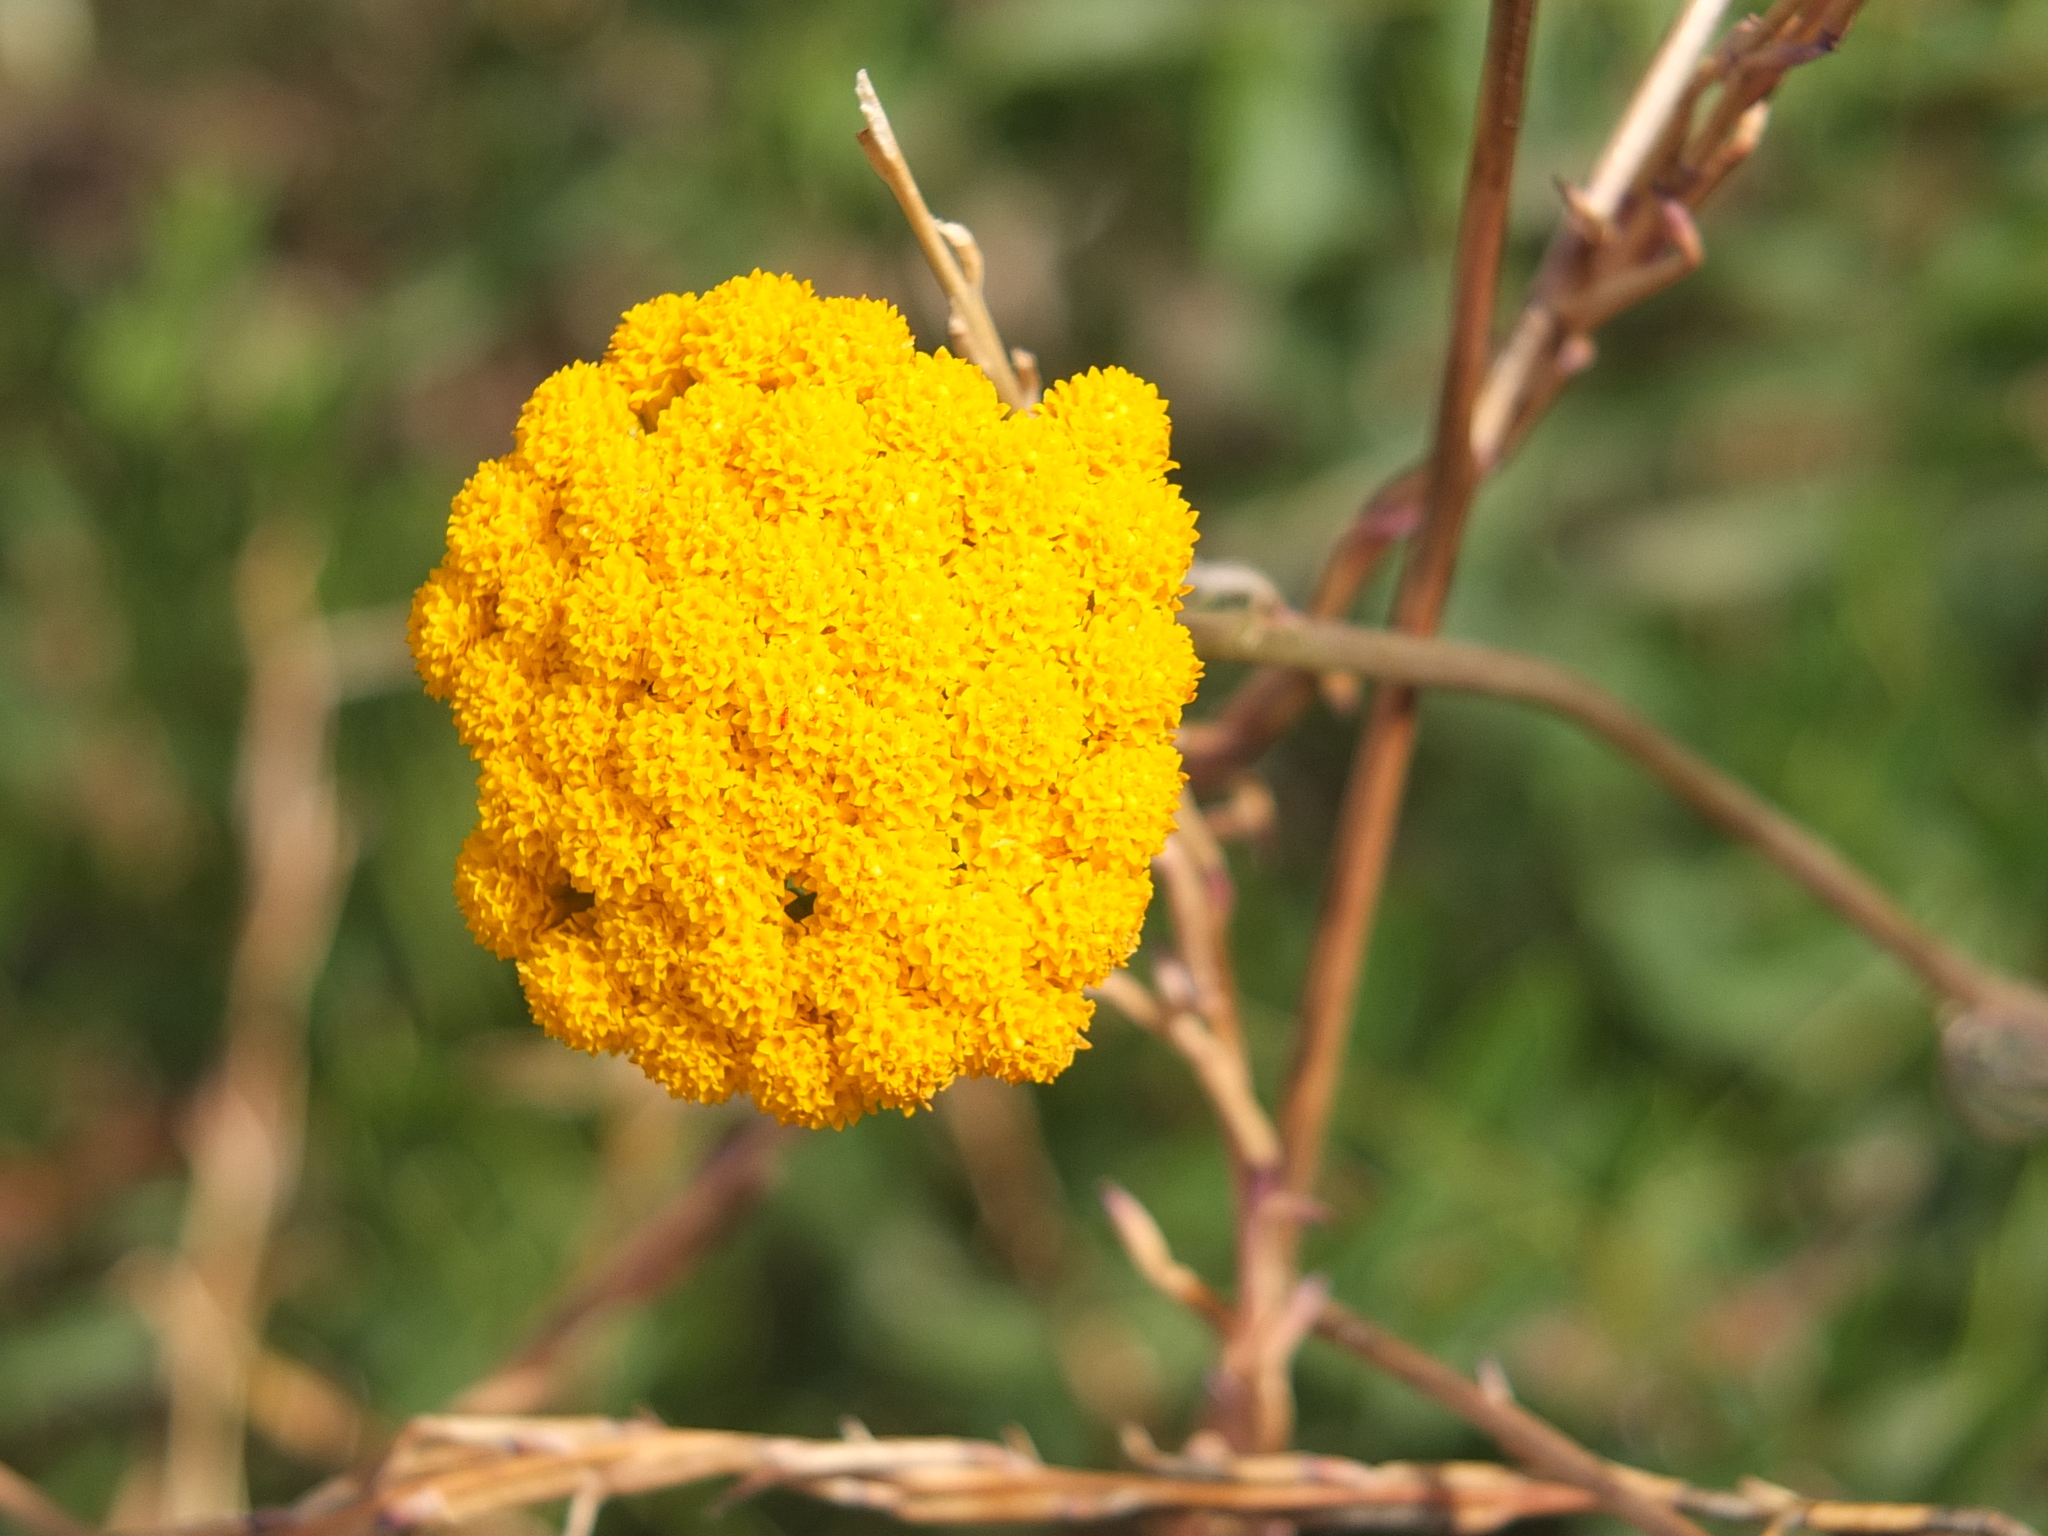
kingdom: Plantae
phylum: Tracheophyta
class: Magnoliopsida
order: Asterales
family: Asteraceae
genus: Tanacetum
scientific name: Tanacetum vulgare
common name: Common tansy
